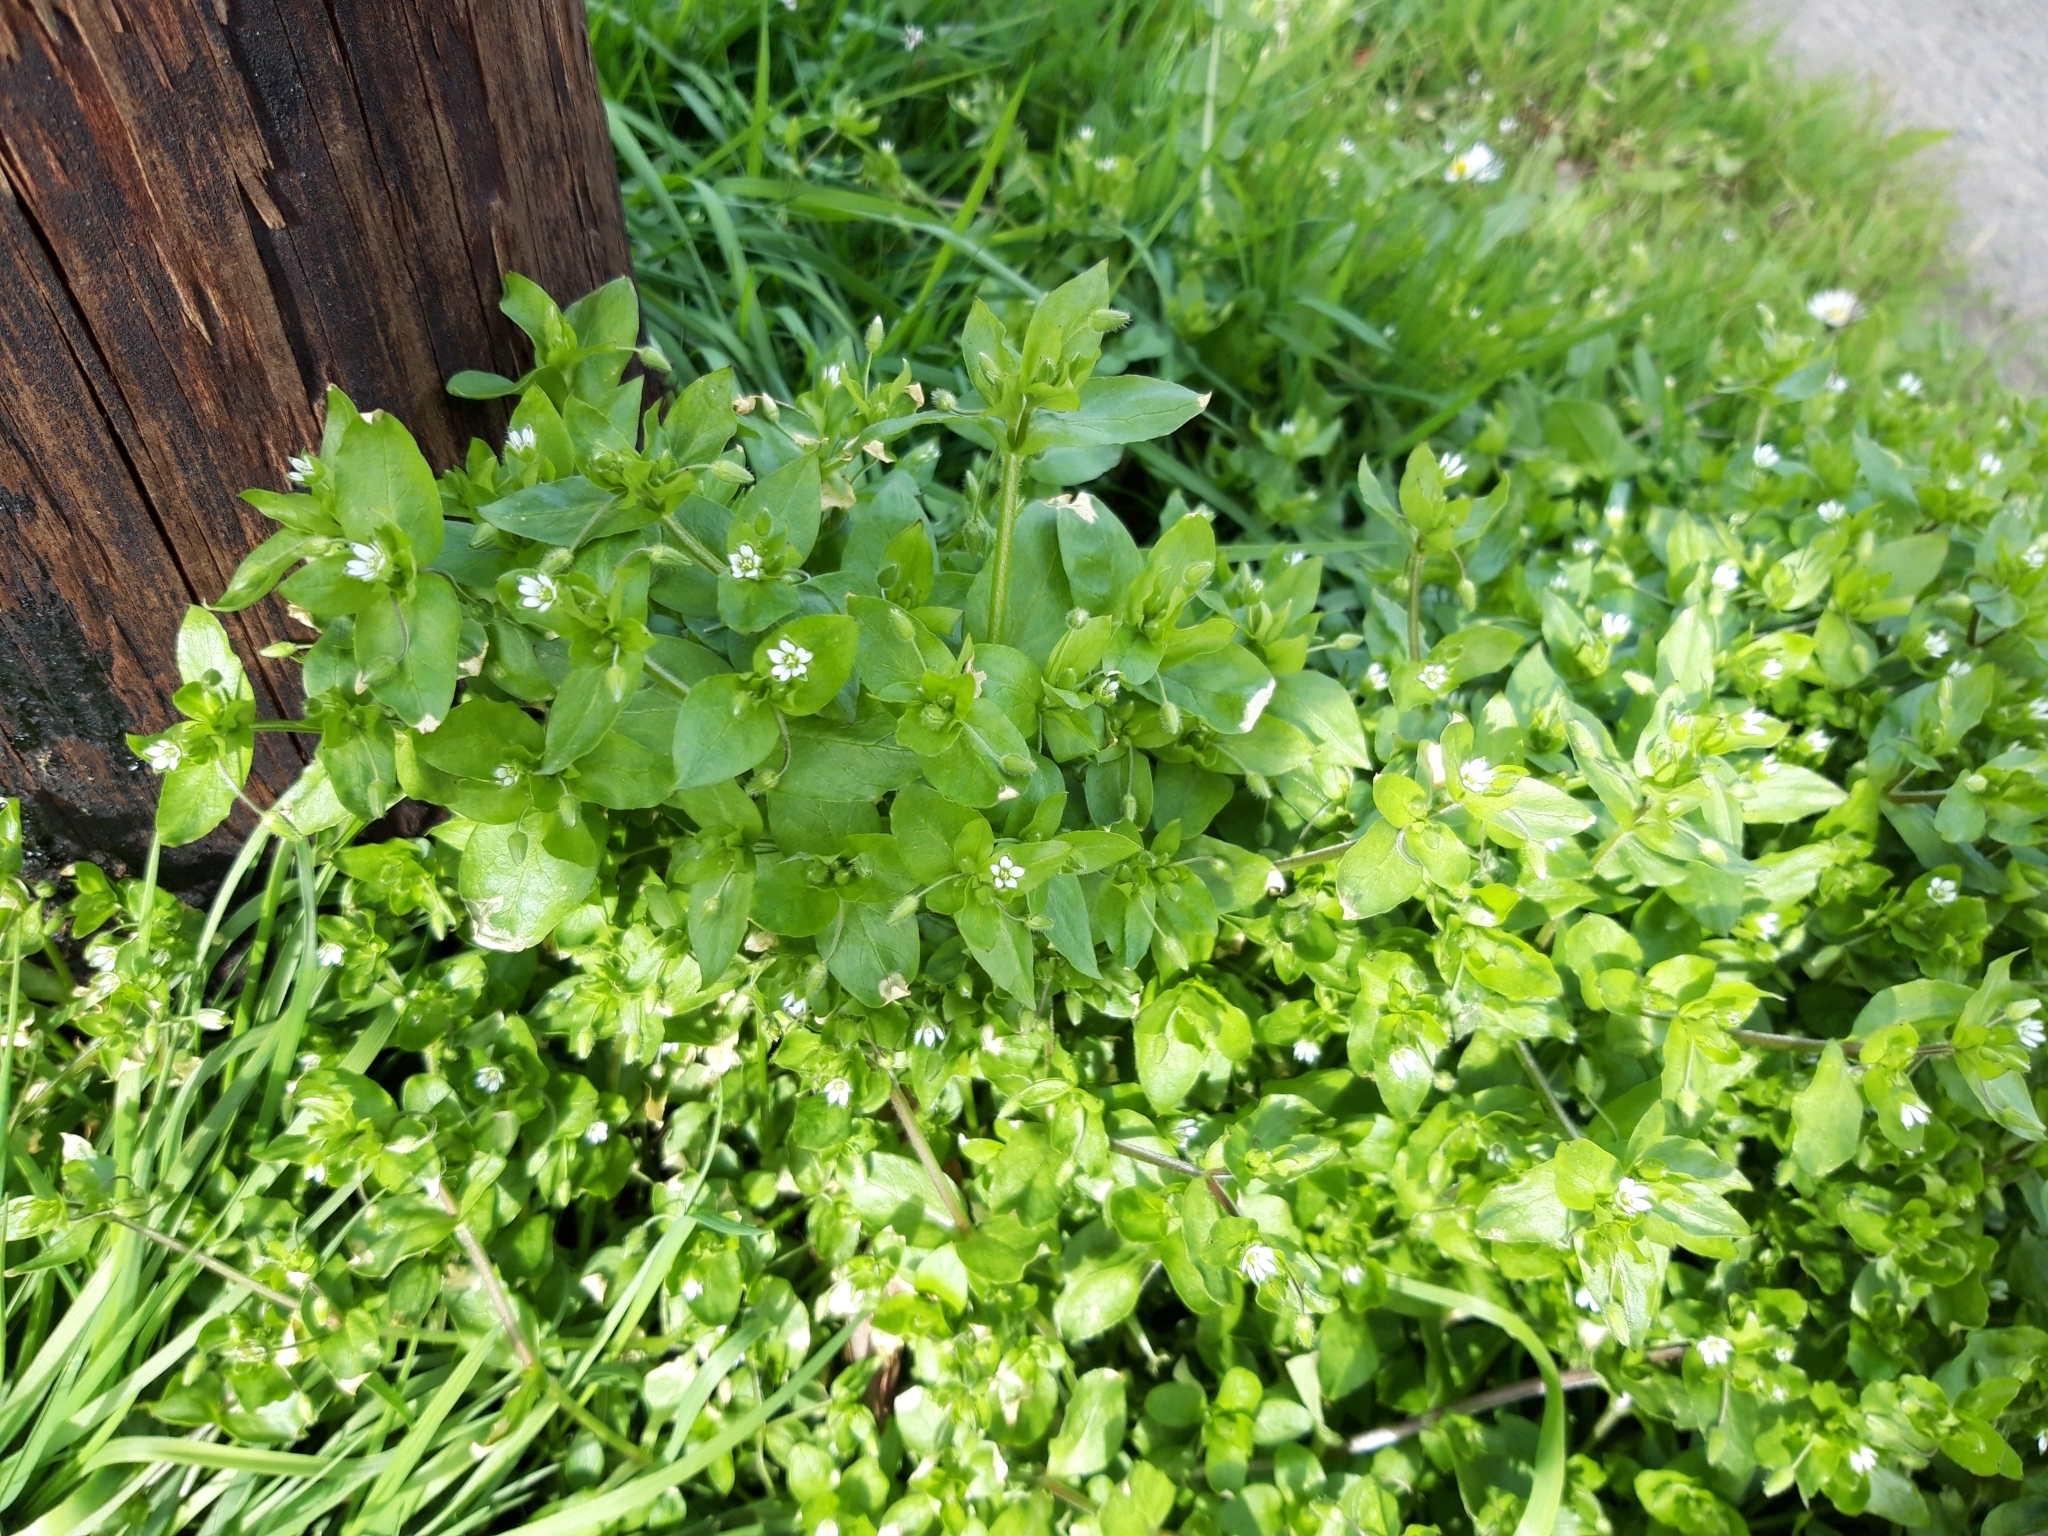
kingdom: Plantae
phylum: Tracheophyta
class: Magnoliopsida
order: Caryophyllales
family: Caryophyllaceae
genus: Stellaria
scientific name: Stellaria media
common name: Common chickweed
